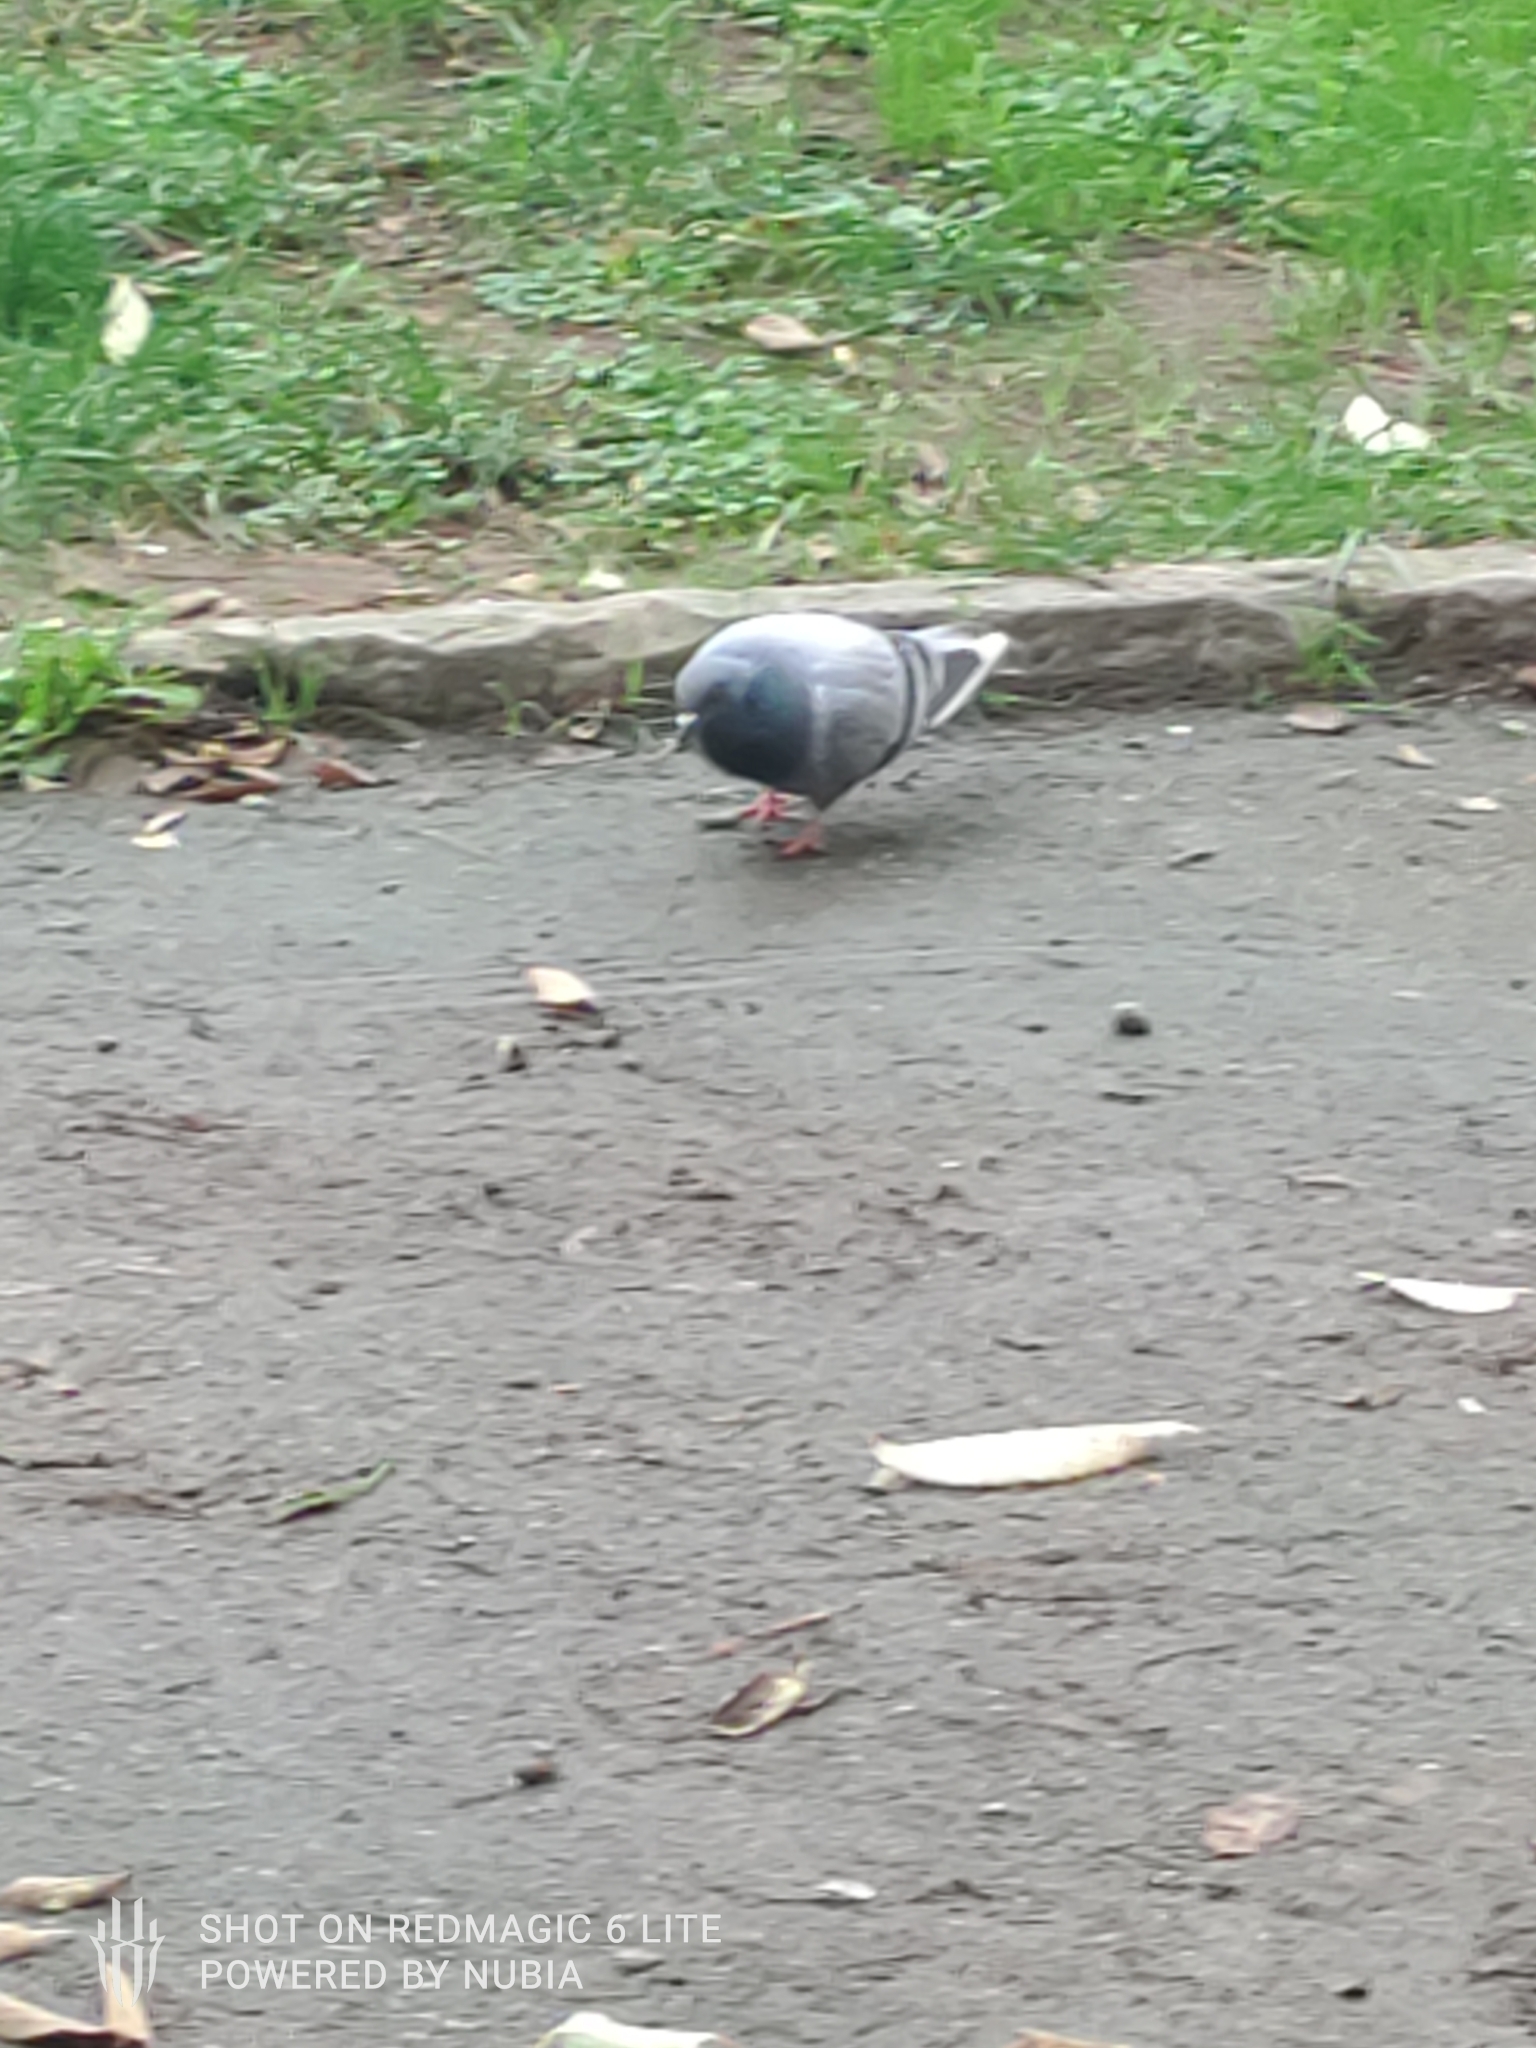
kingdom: Animalia
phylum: Chordata
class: Aves
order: Columbiformes
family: Columbidae
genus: Columba
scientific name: Columba livia
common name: Rock pigeon
